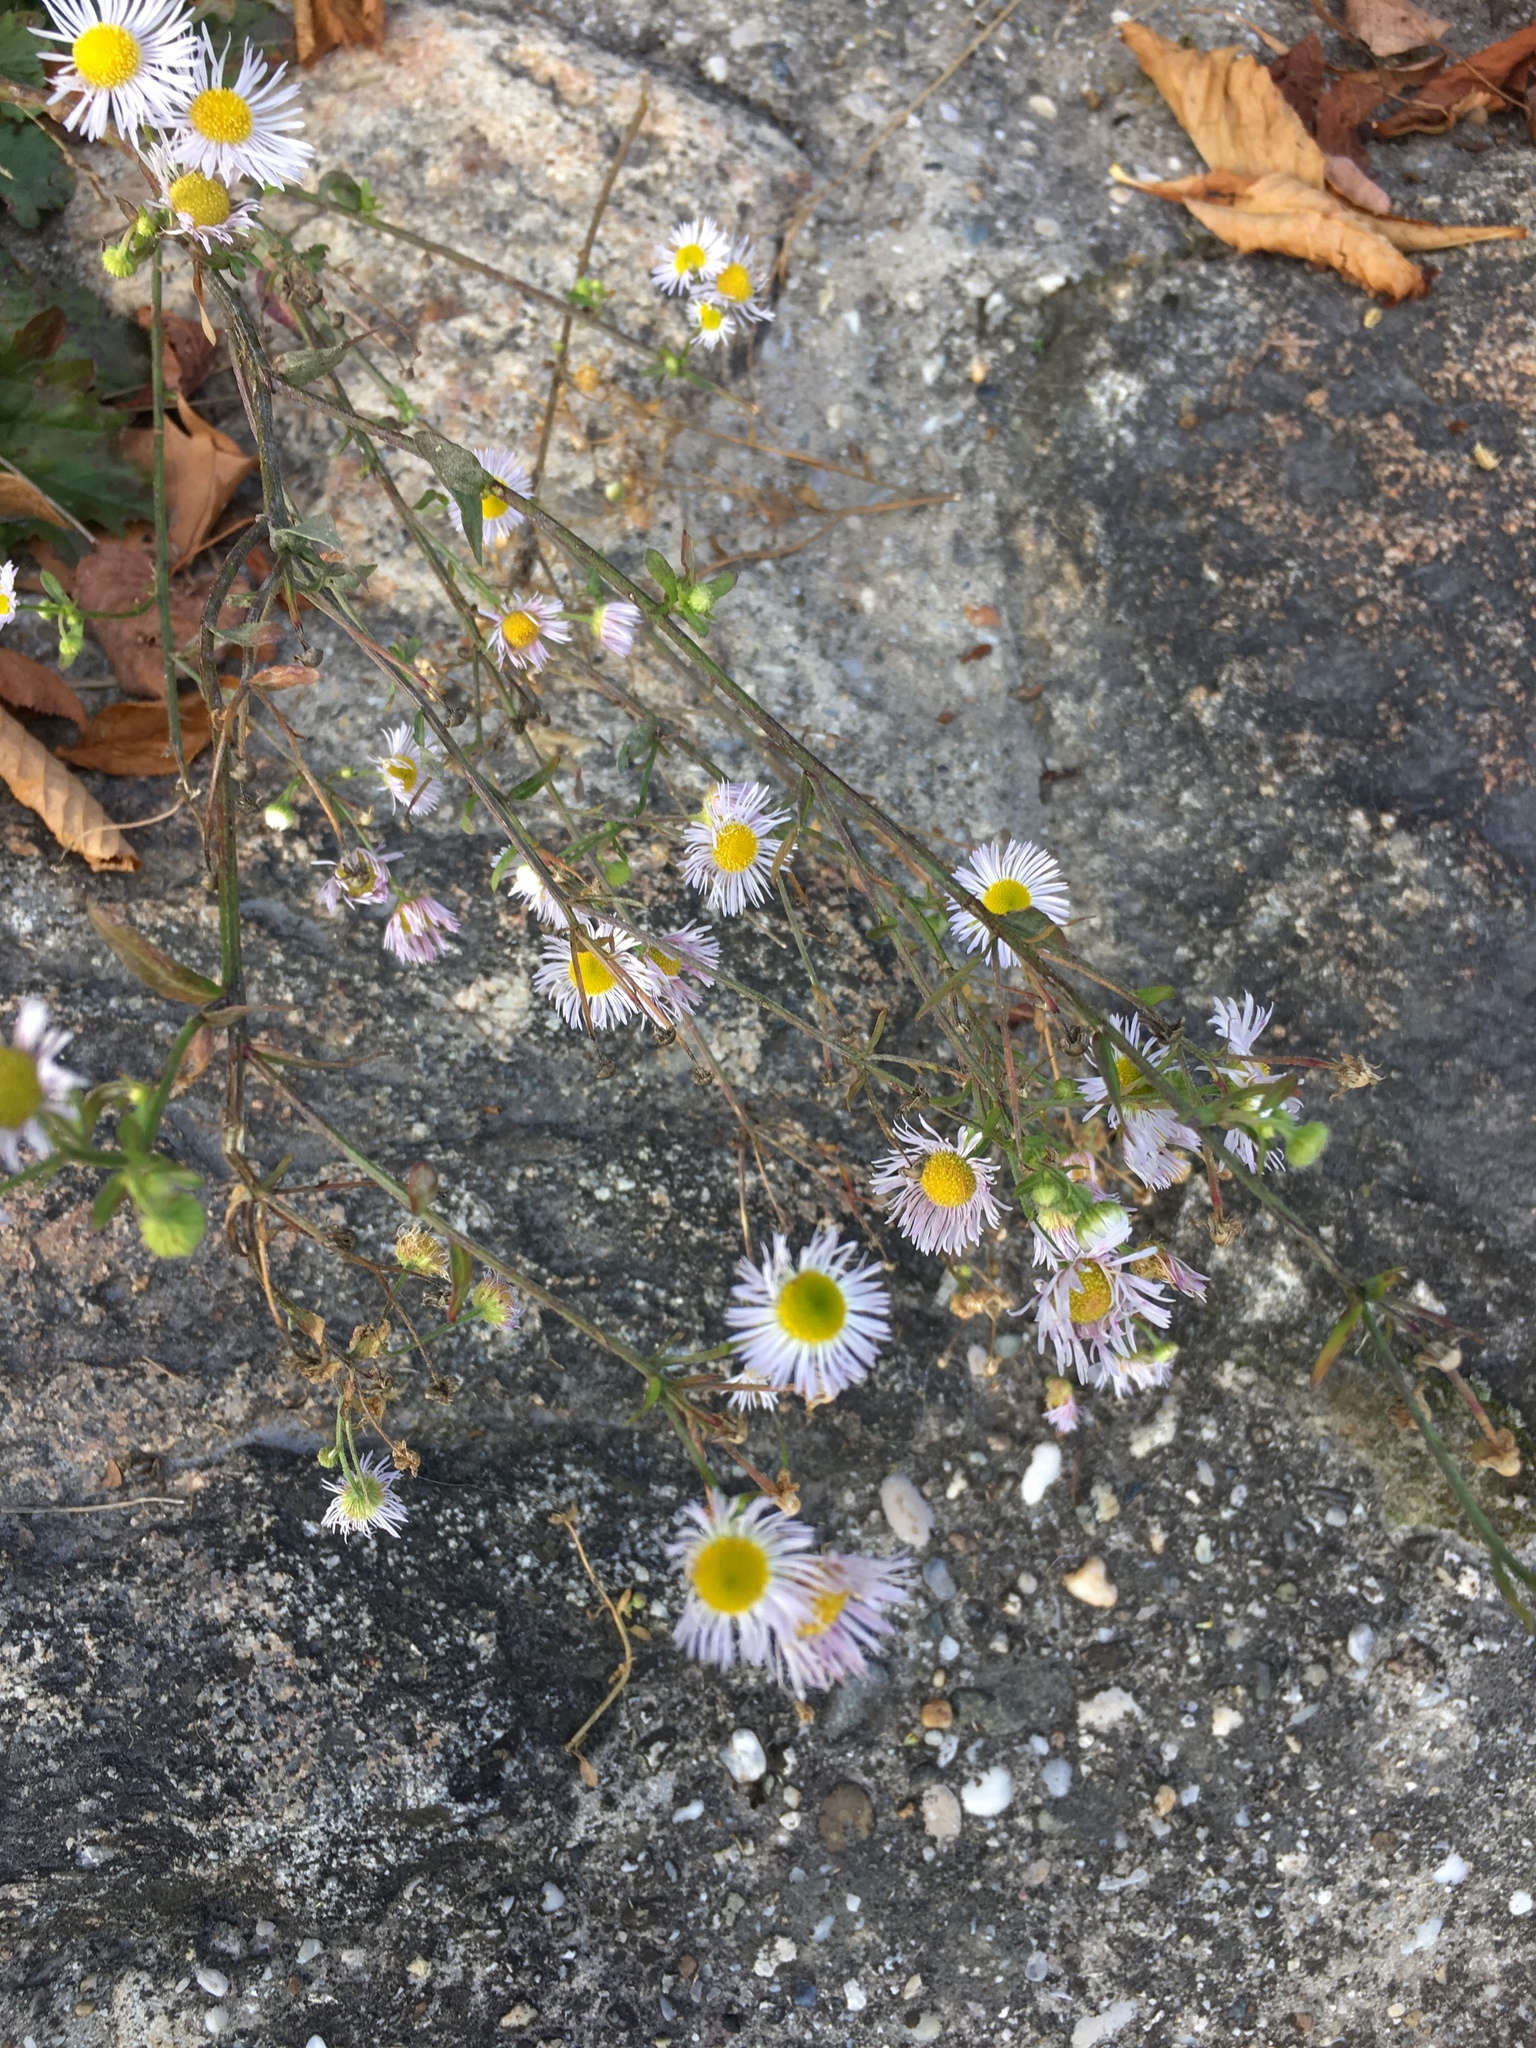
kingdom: Plantae
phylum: Tracheophyta
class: Magnoliopsida
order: Asterales
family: Asteraceae
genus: Erigeron
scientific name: Erigeron annuus
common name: Tall fleabane
